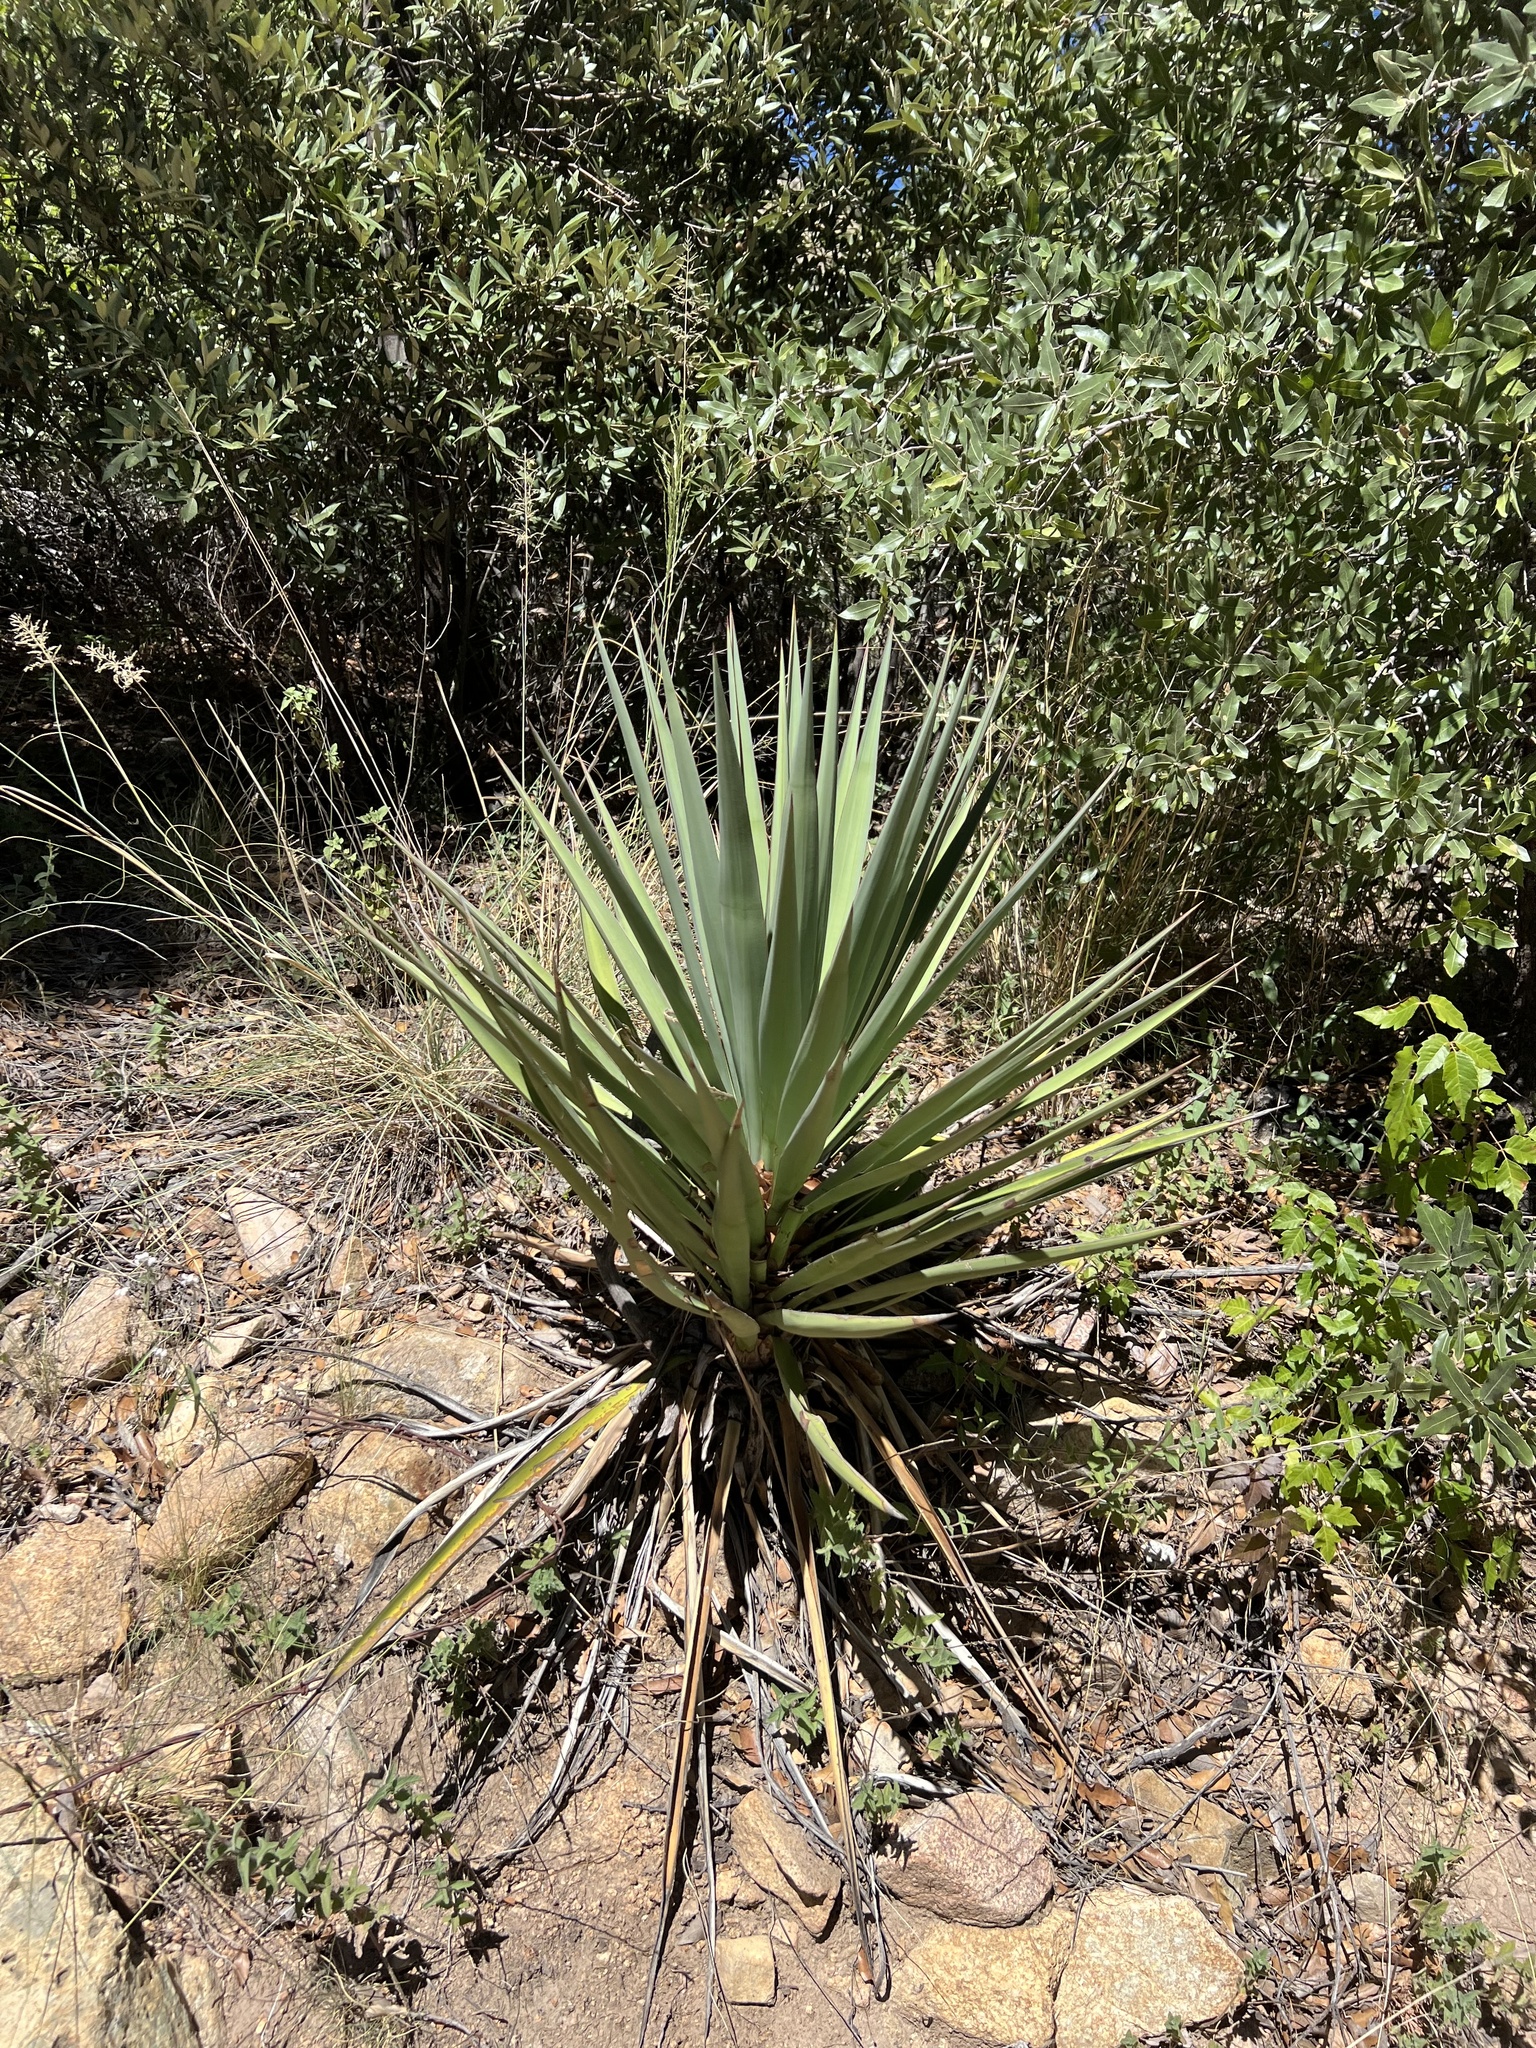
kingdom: Plantae
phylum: Tracheophyta
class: Liliopsida
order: Asparagales
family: Asparagaceae
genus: Yucca
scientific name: Yucca schottii
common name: Hoary yucca
